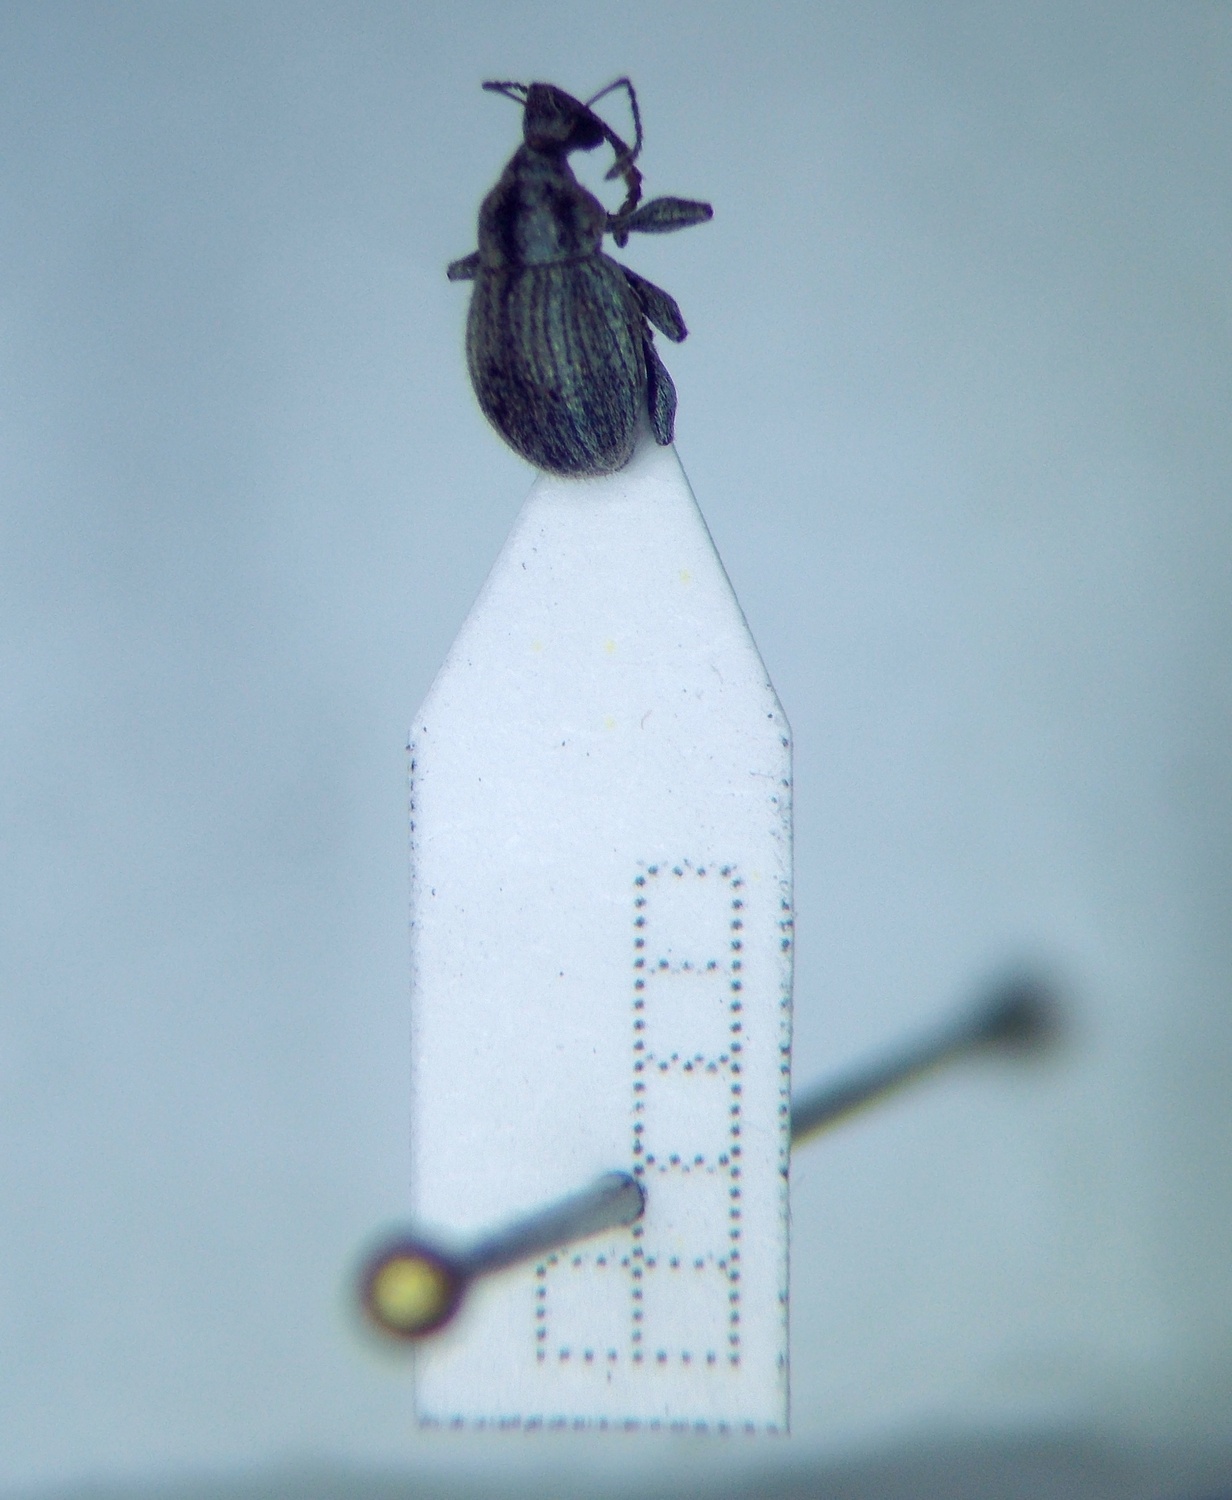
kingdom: Animalia
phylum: Arthropoda
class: Insecta
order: Coleoptera
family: Curculionidae
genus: Apsis
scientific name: Apsis albolineata
